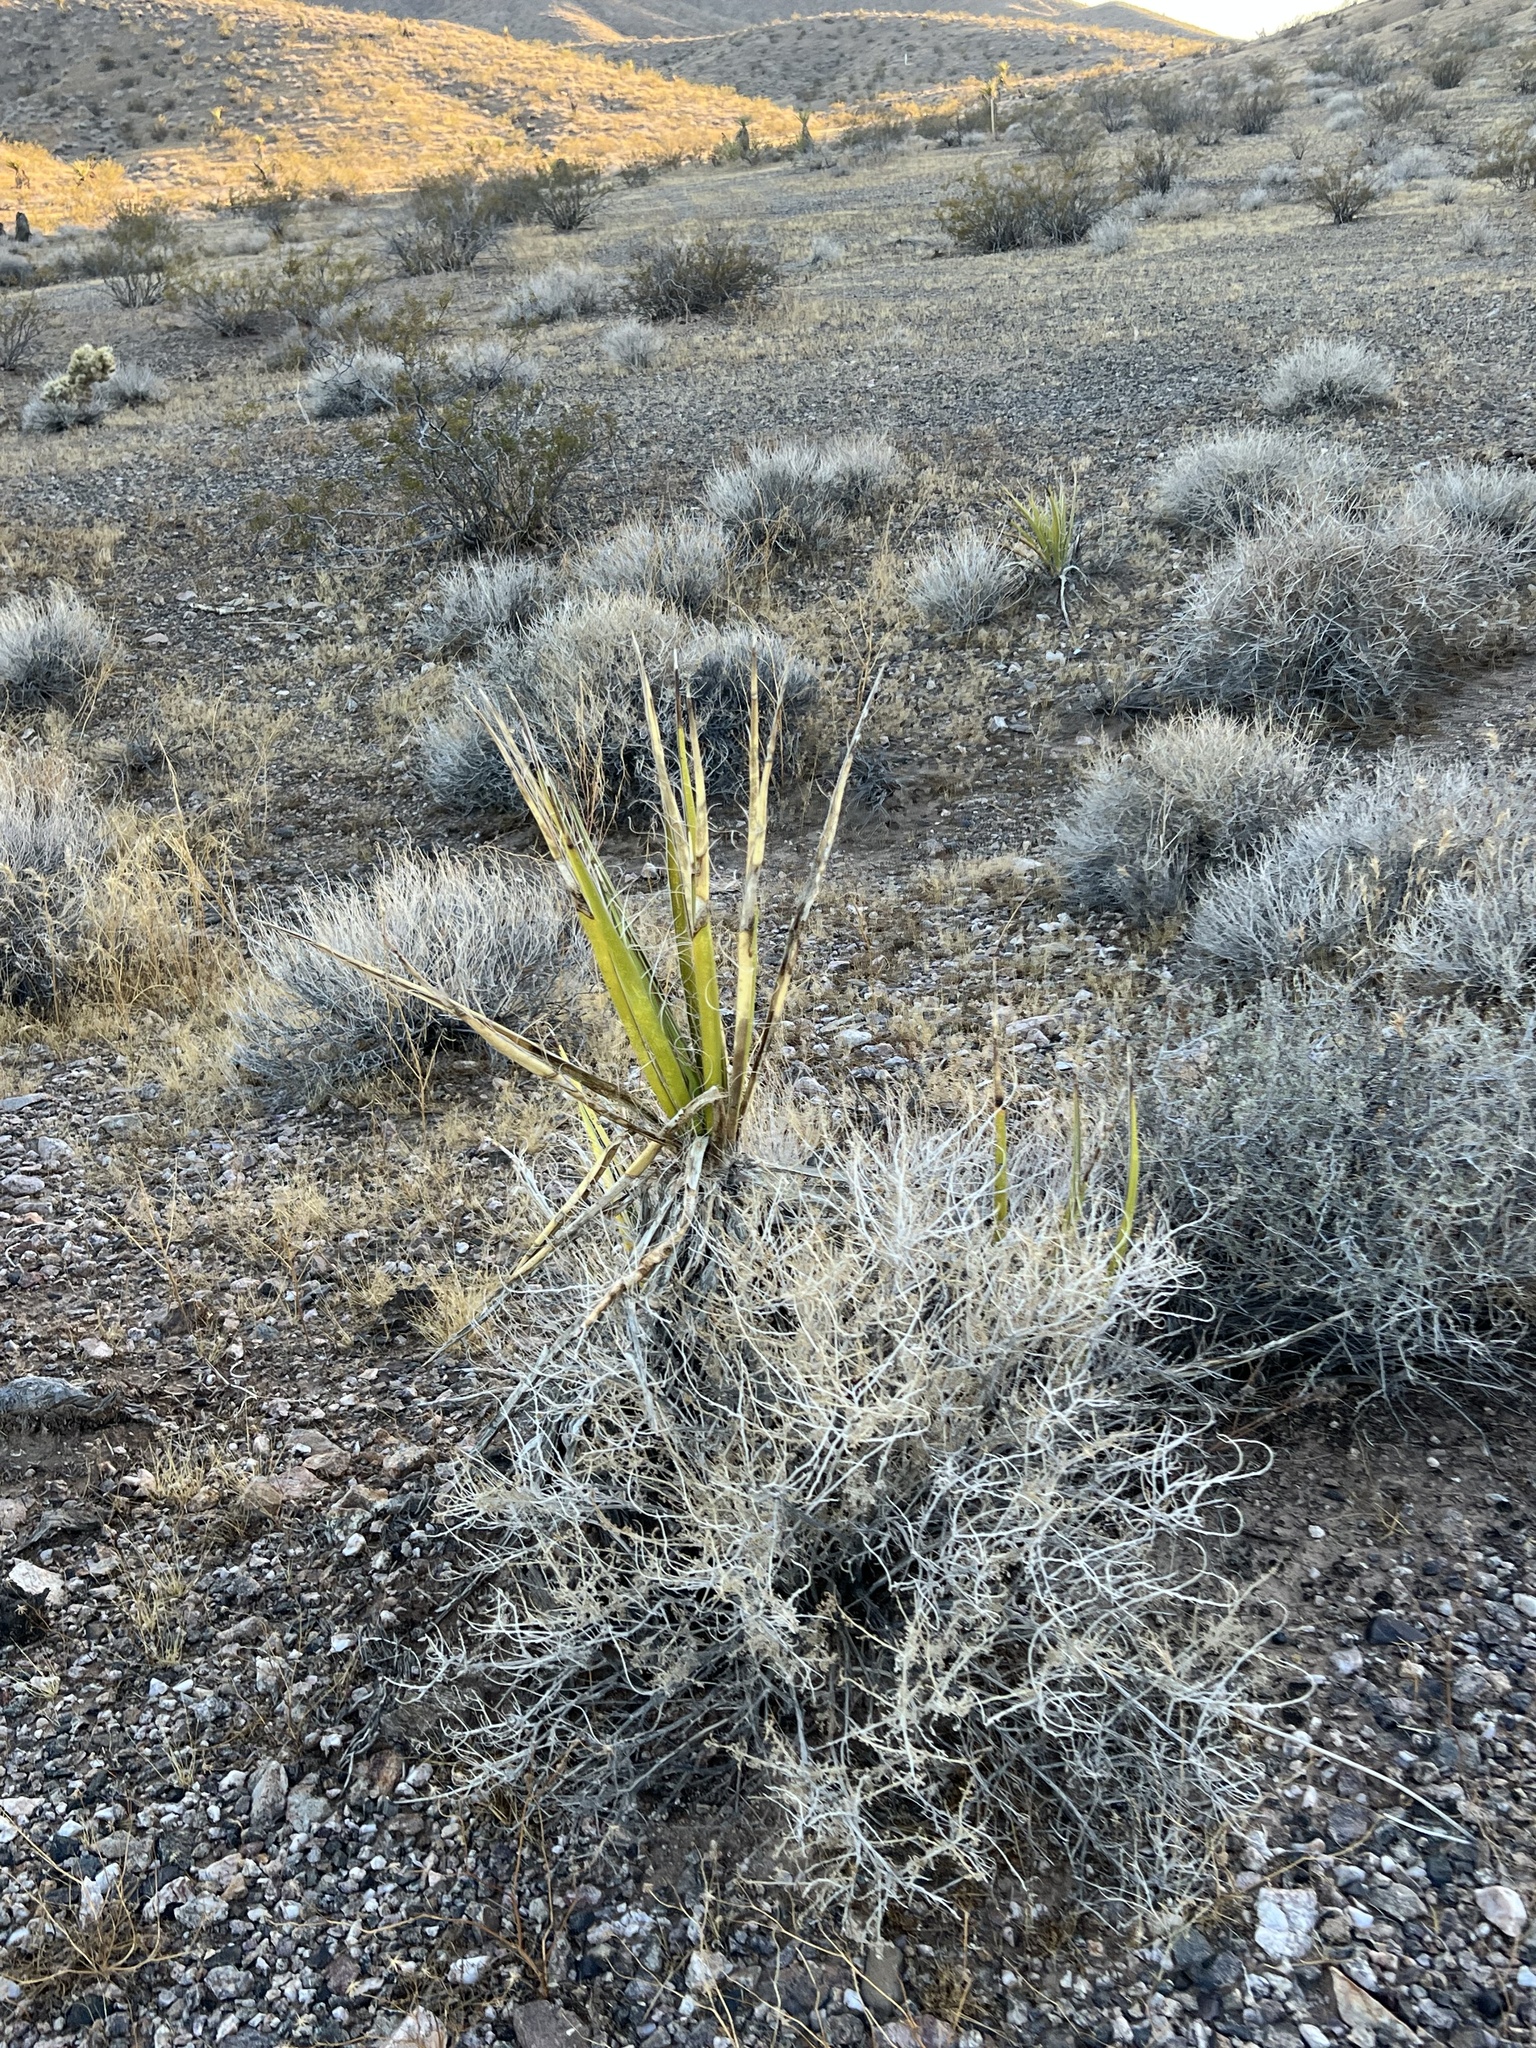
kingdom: Plantae
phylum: Tracheophyta
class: Liliopsida
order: Asparagales
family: Asparagaceae
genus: Yucca
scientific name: Yucca schidigera
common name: Mojave yucca
